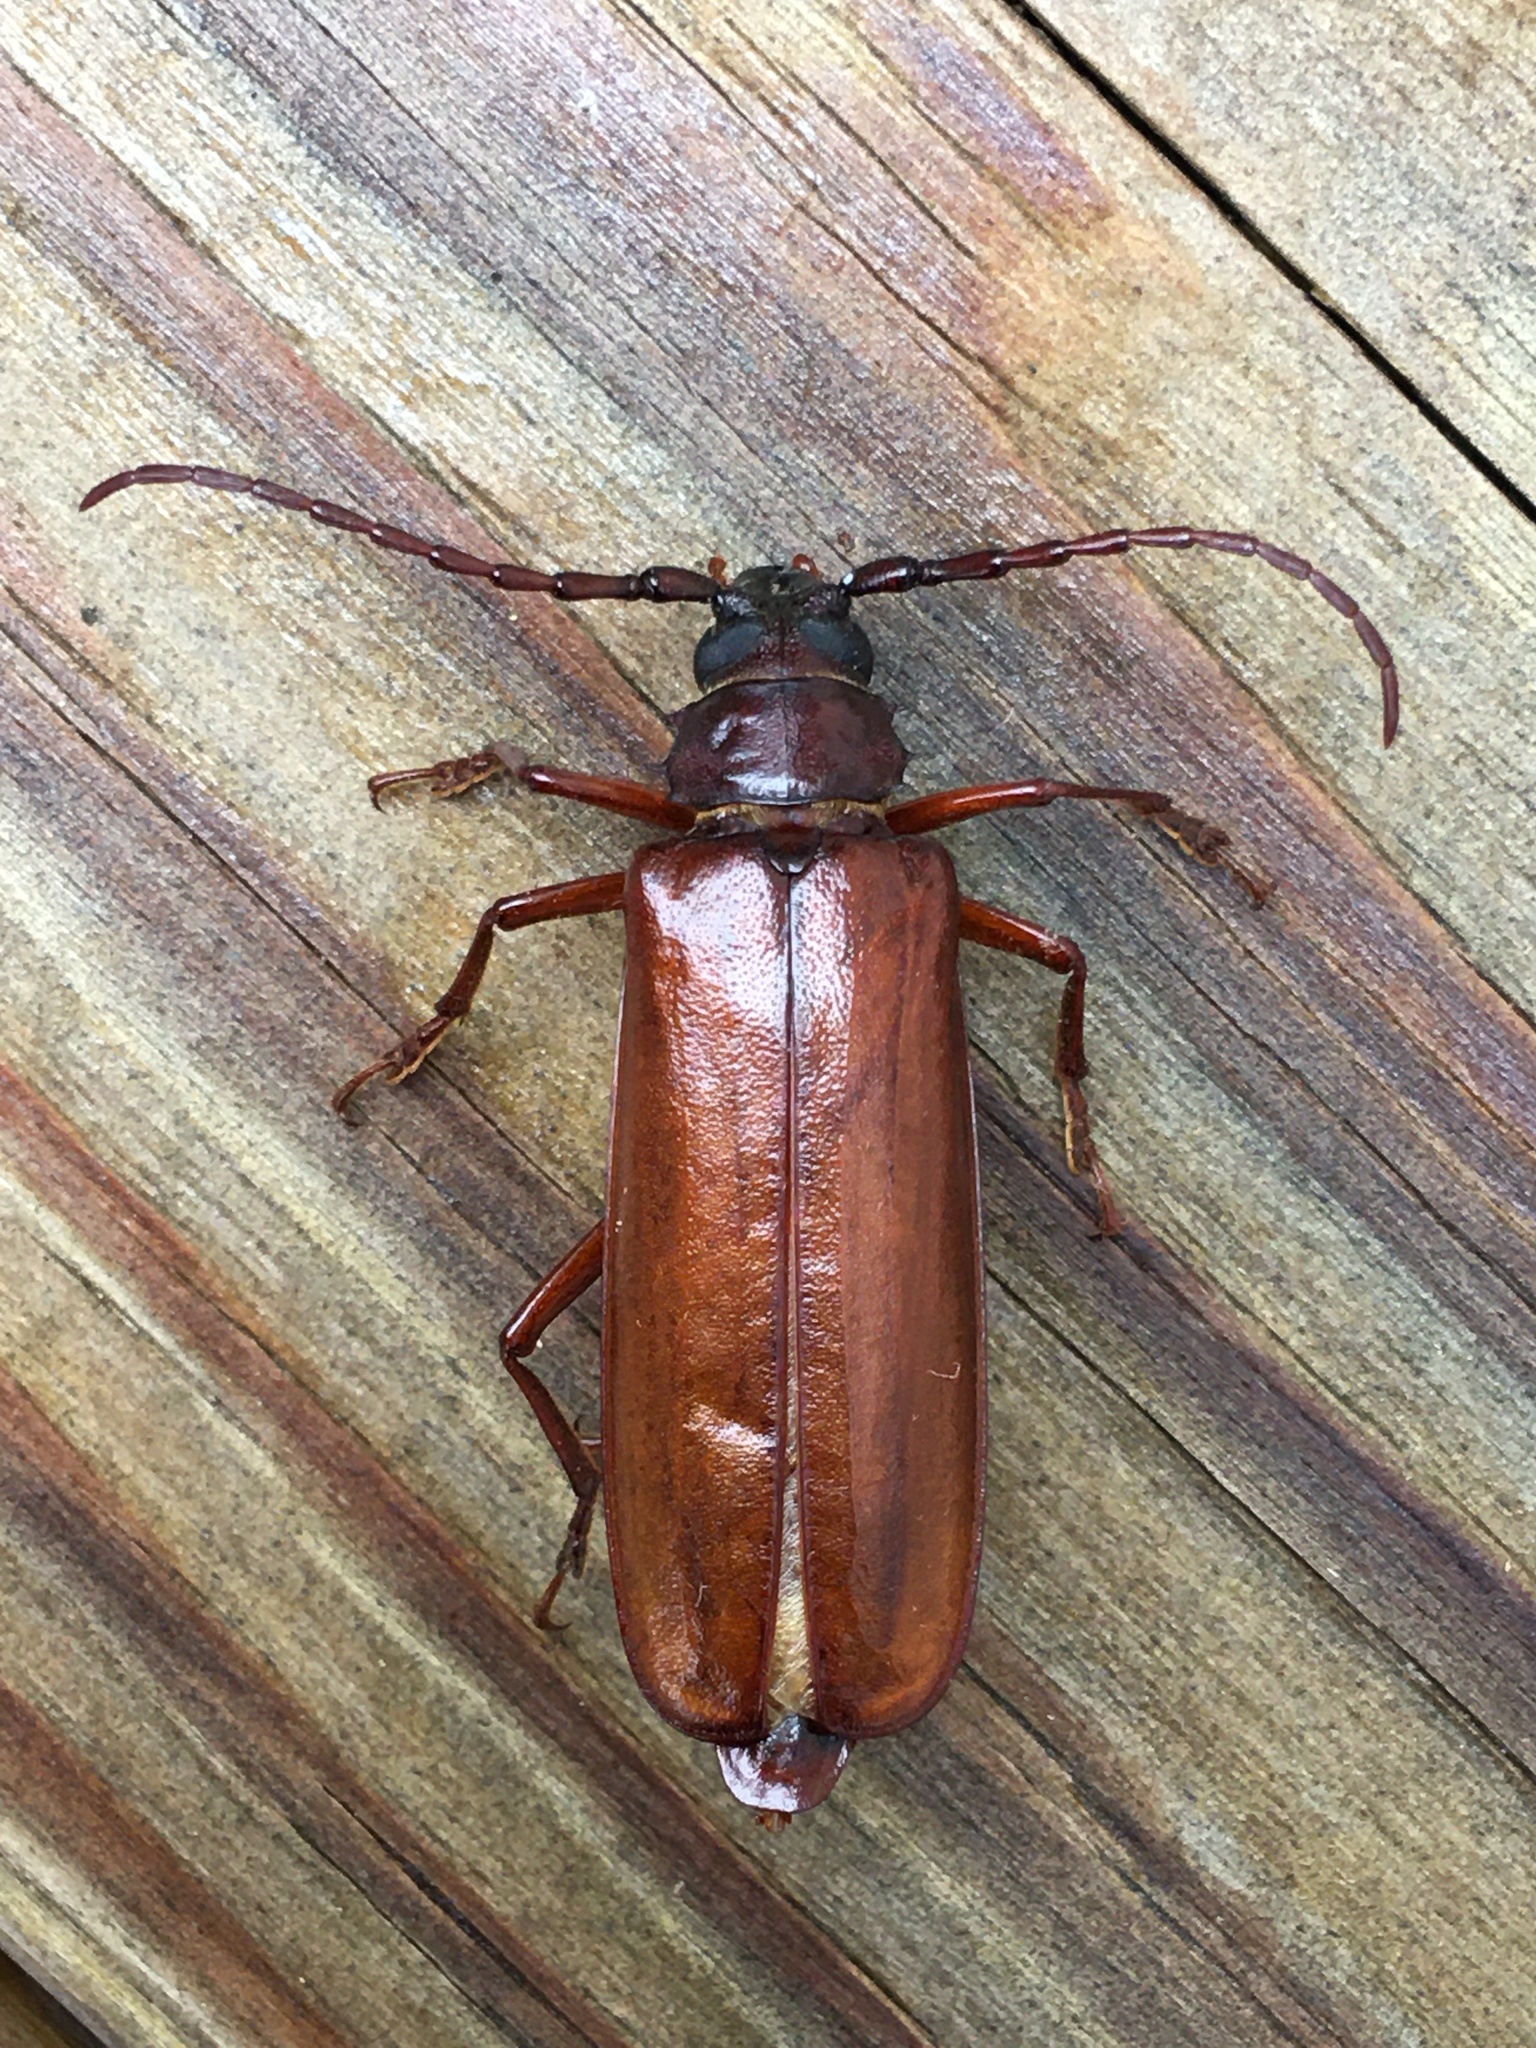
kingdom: Animalia
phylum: Arthropoda
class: Insecta
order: Coleoptera
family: Cerambycidae
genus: Orthosoma
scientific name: Orthosoma brunneum
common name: Brown prionid beetle
